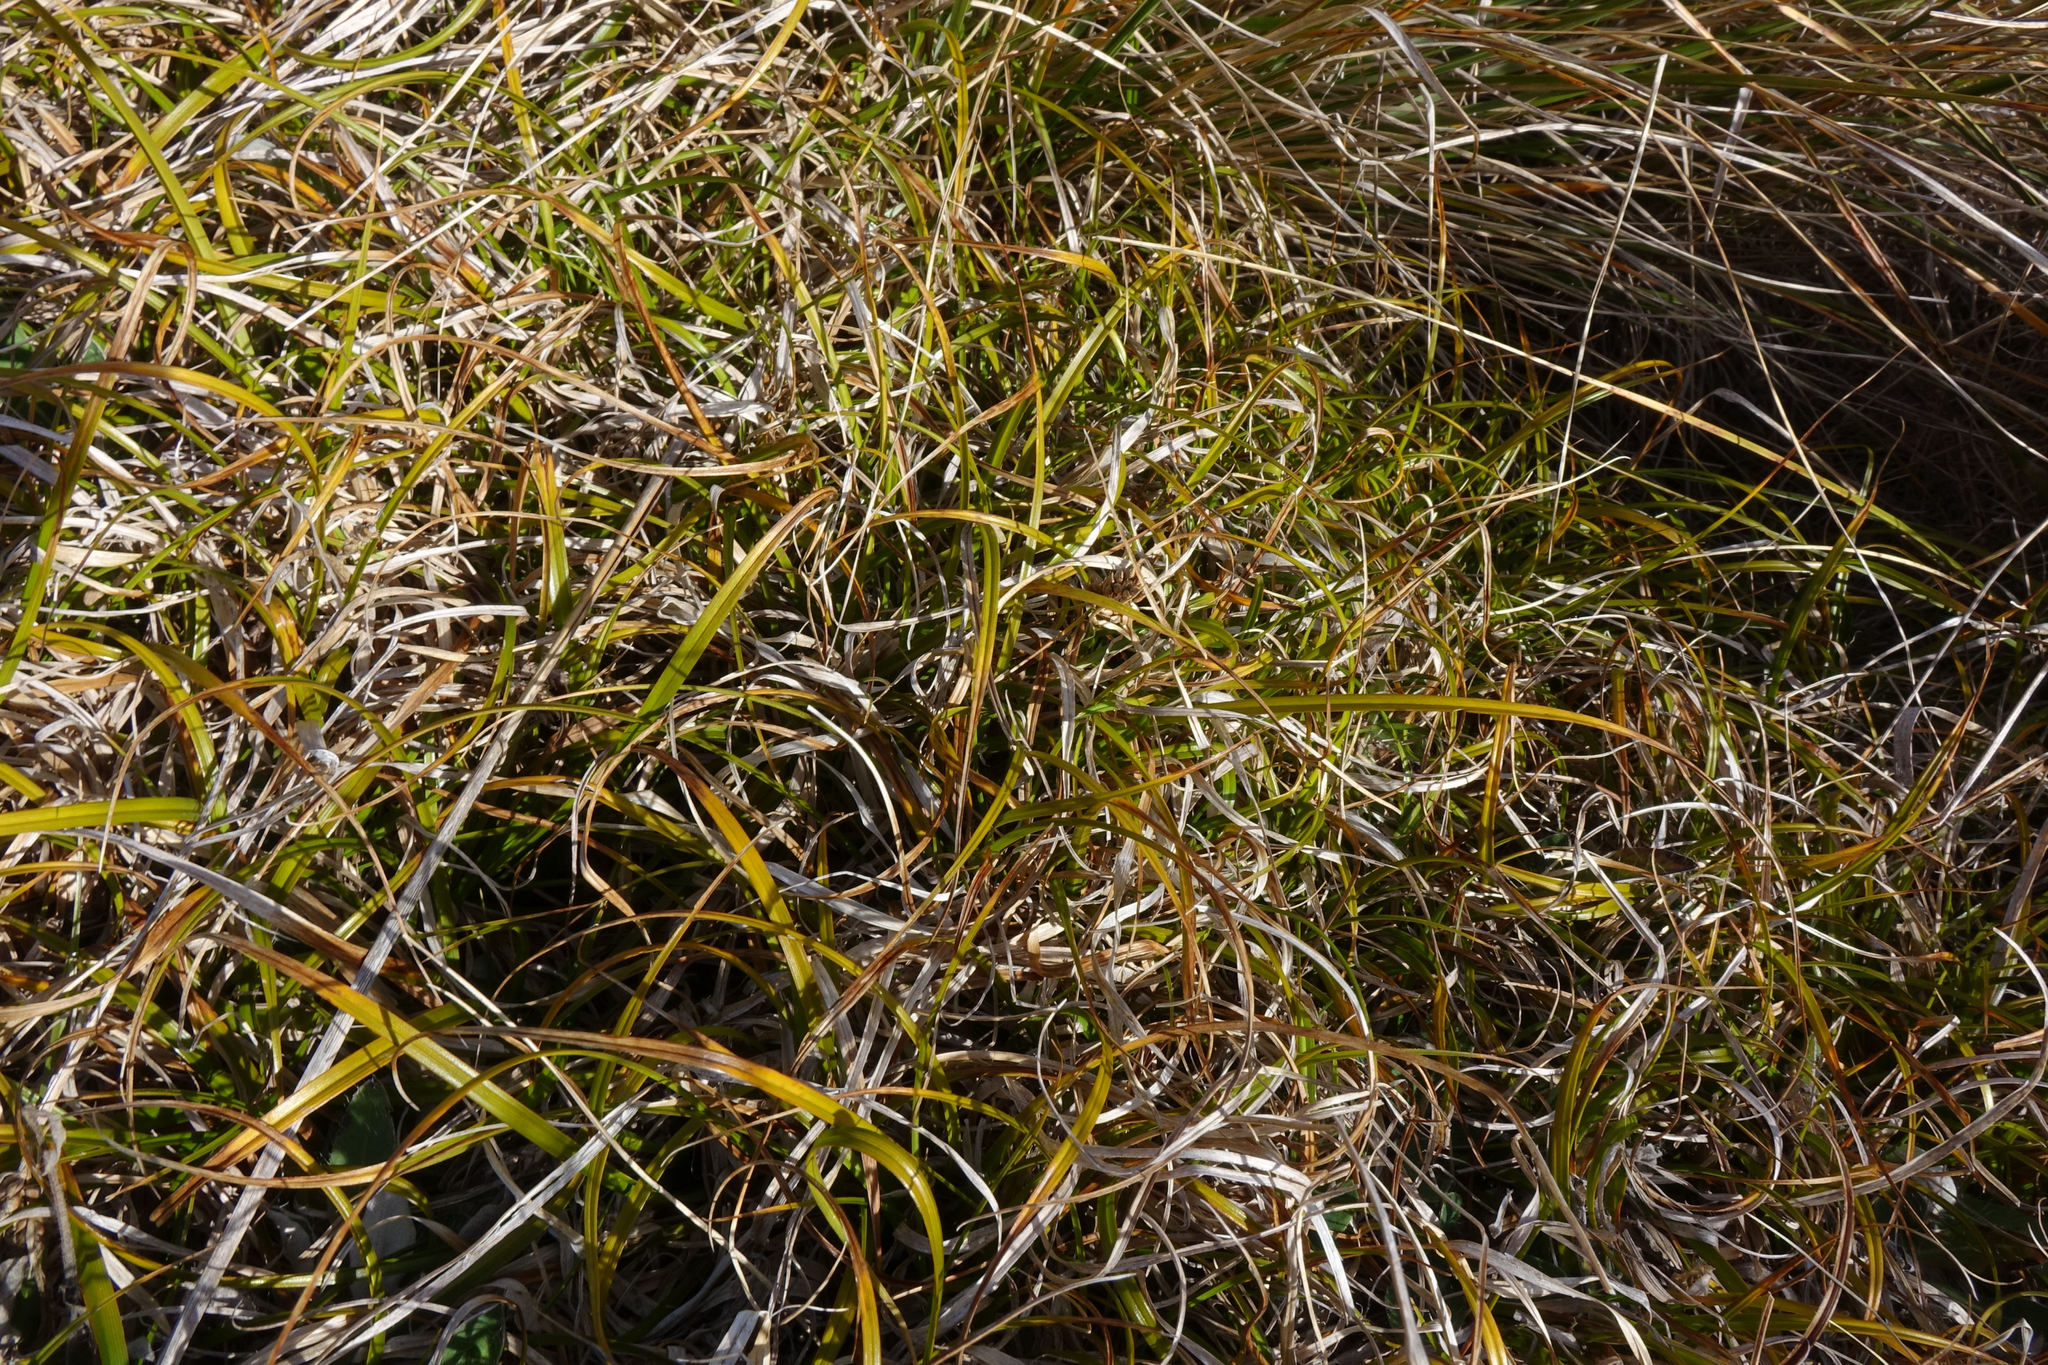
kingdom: Plantae
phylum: Tracheophyta
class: Liliopsida
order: Poales
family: Cyperaceae
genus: Carex
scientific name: Carex wakatipu
